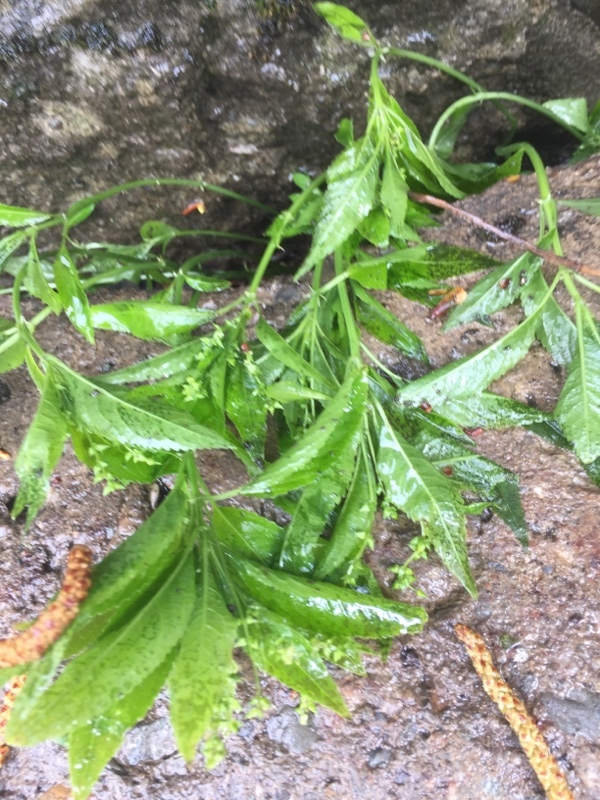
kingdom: Plantae
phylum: Tracheophyta
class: Magnoliopsida
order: Malpighiales
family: Euphorbiaceae
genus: Mercurialis
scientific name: Mercurialis perennis
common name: Dog mercury
